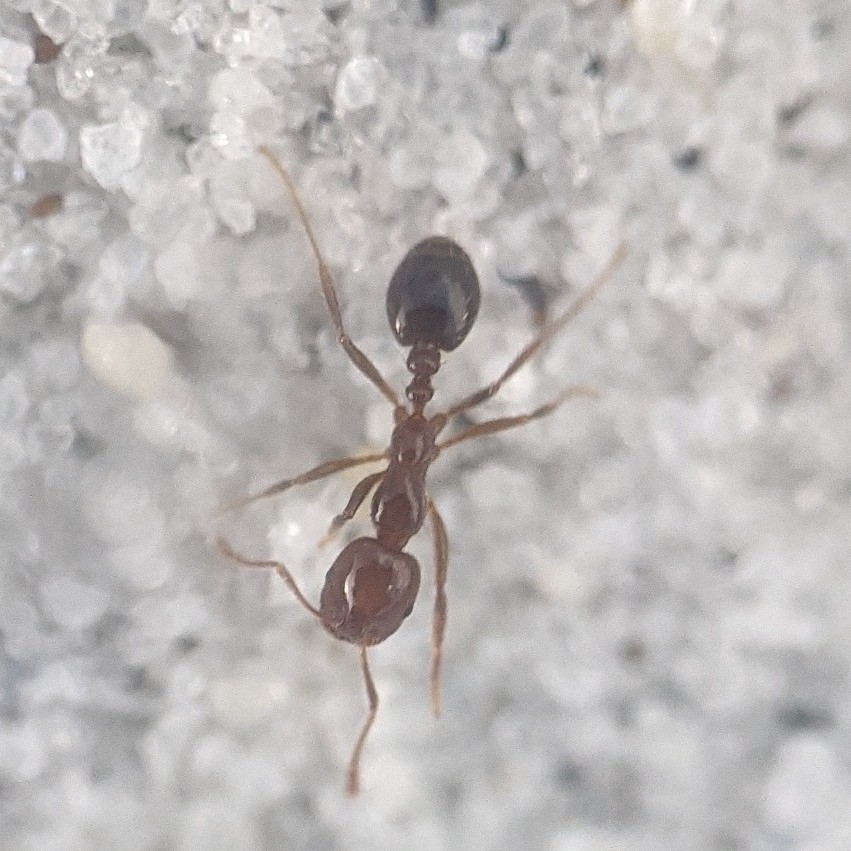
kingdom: Animalia
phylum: Arthropoda
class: Insecta
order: Hymenoptera
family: Formicidae
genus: Solenopsis
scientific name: Solenopsis invicta
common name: Red imported fire ant
